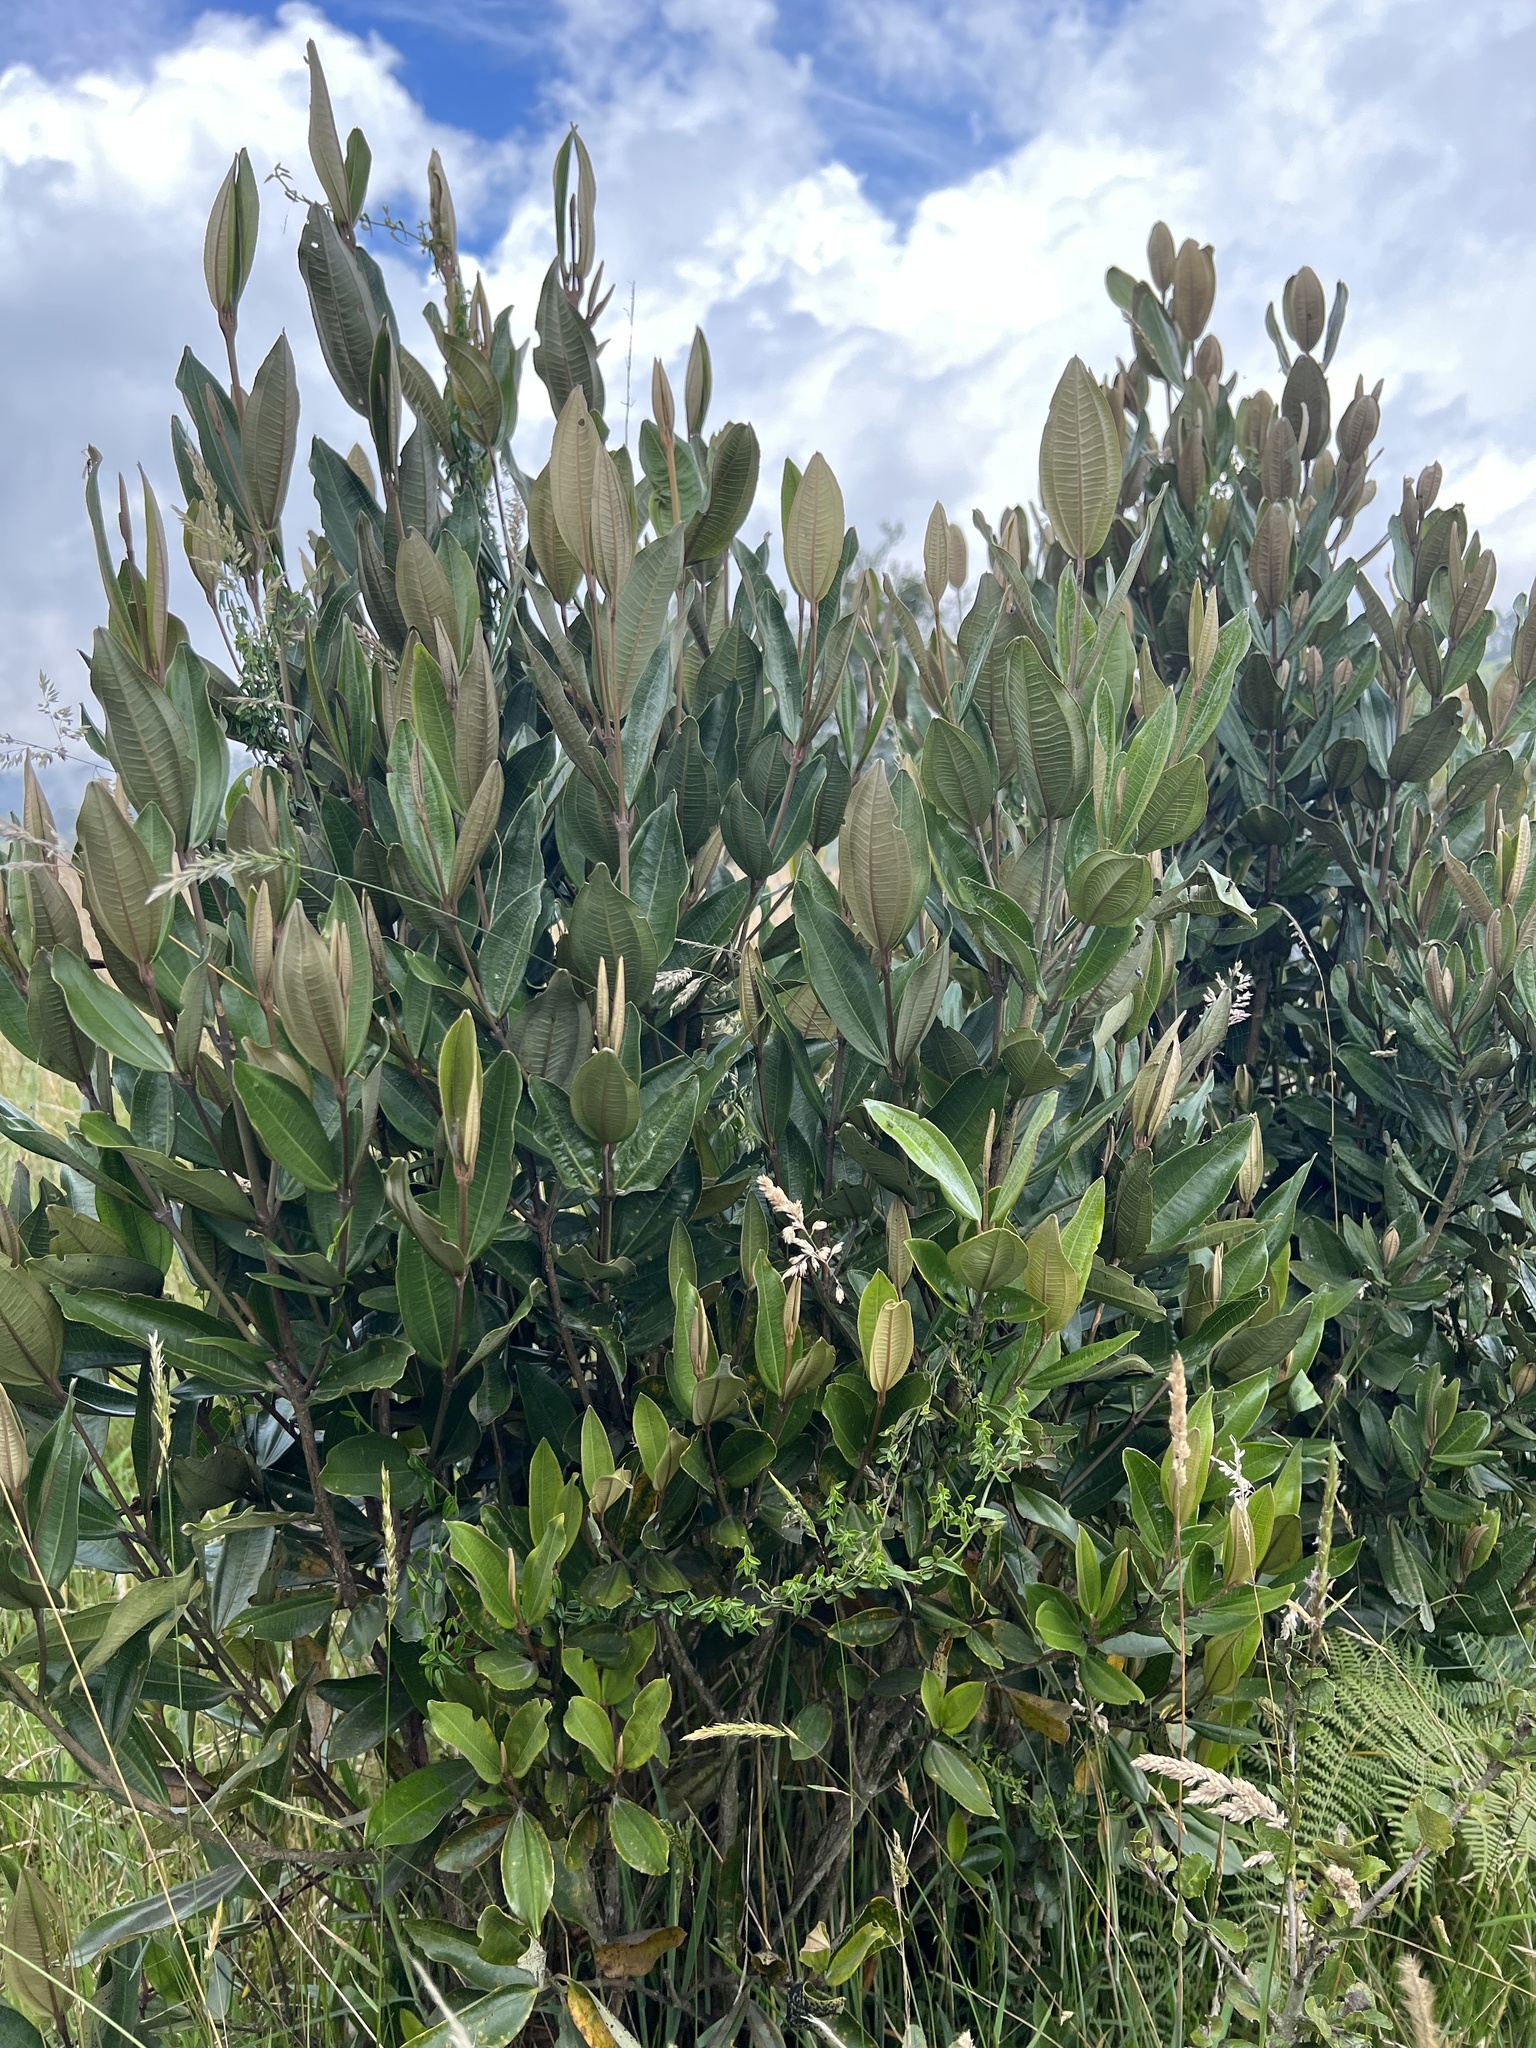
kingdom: Plantae
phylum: Tracheophyta
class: Magnoliopsida
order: Myrtales
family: Melastomataceae
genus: Miconia
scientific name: Miconia squamulosa
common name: Squamulose maya
